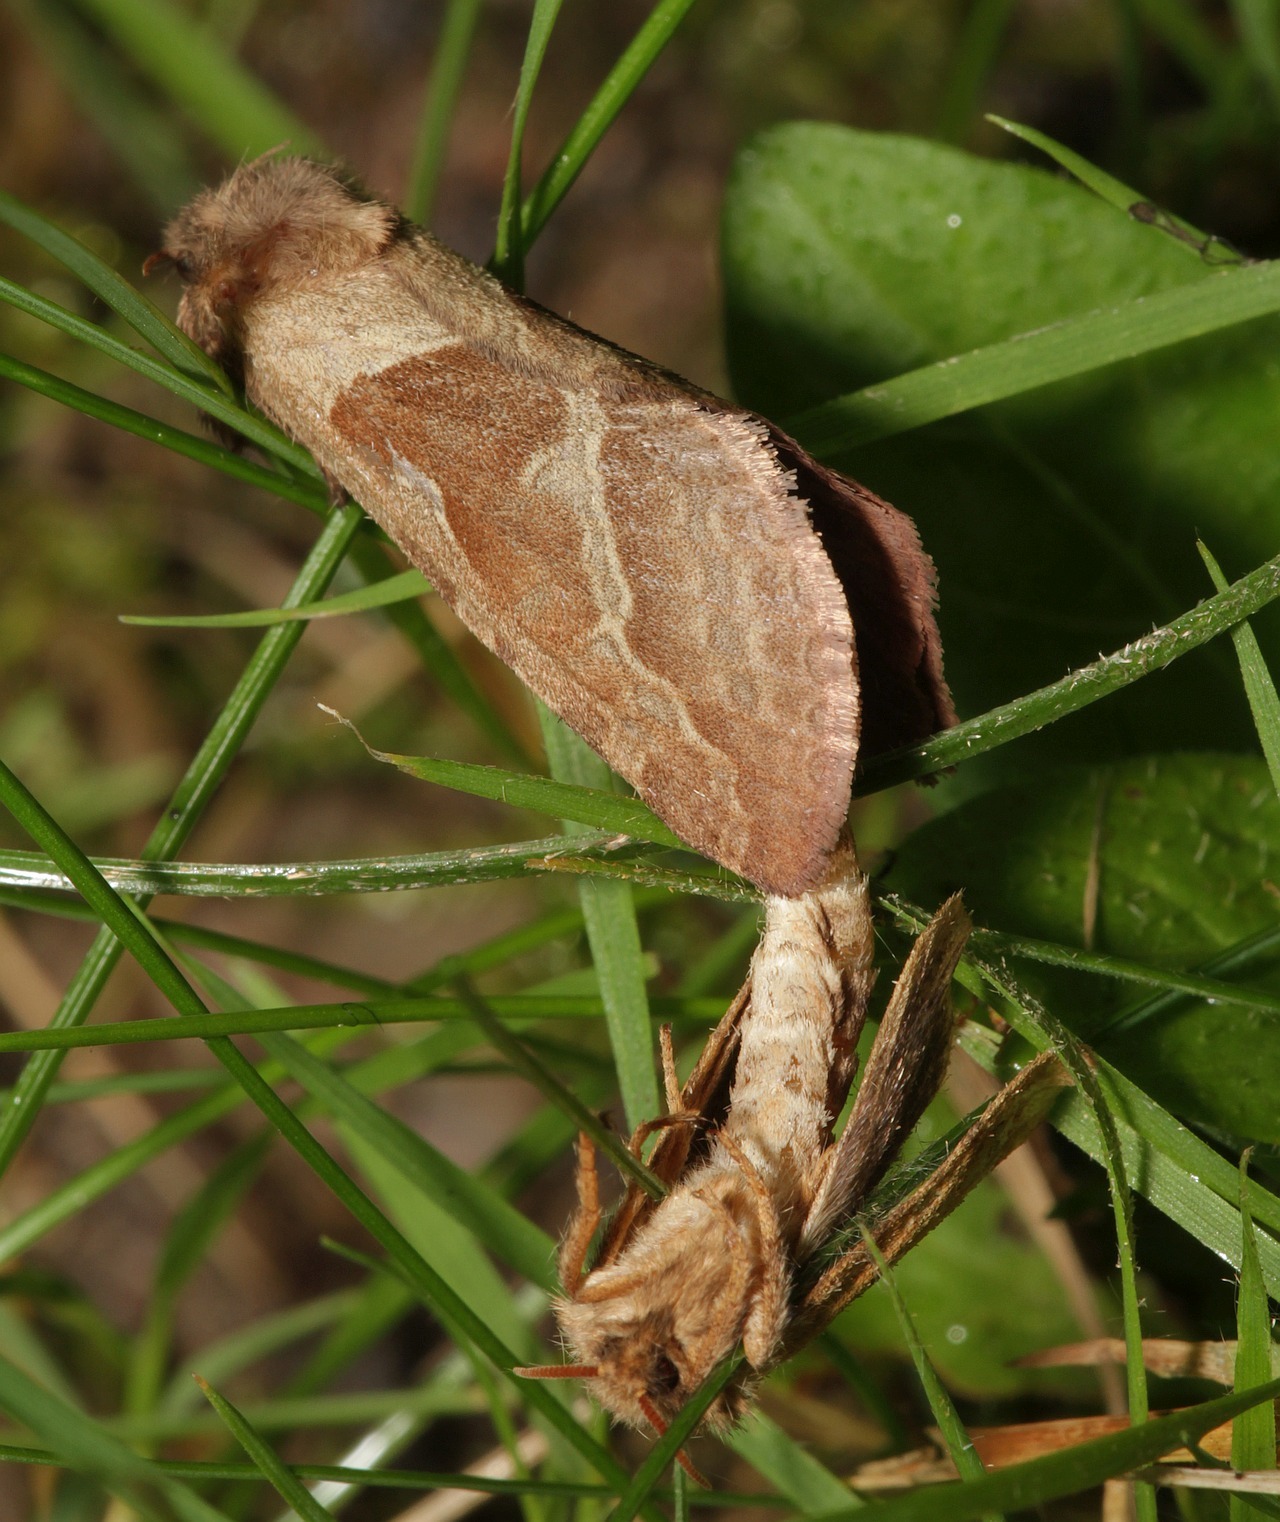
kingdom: Animalia
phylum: Arthropoda
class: Insecta
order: Lepidoptera
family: Hepialidae
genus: Triodia
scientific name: Triodia sylvina
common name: Orange swift
